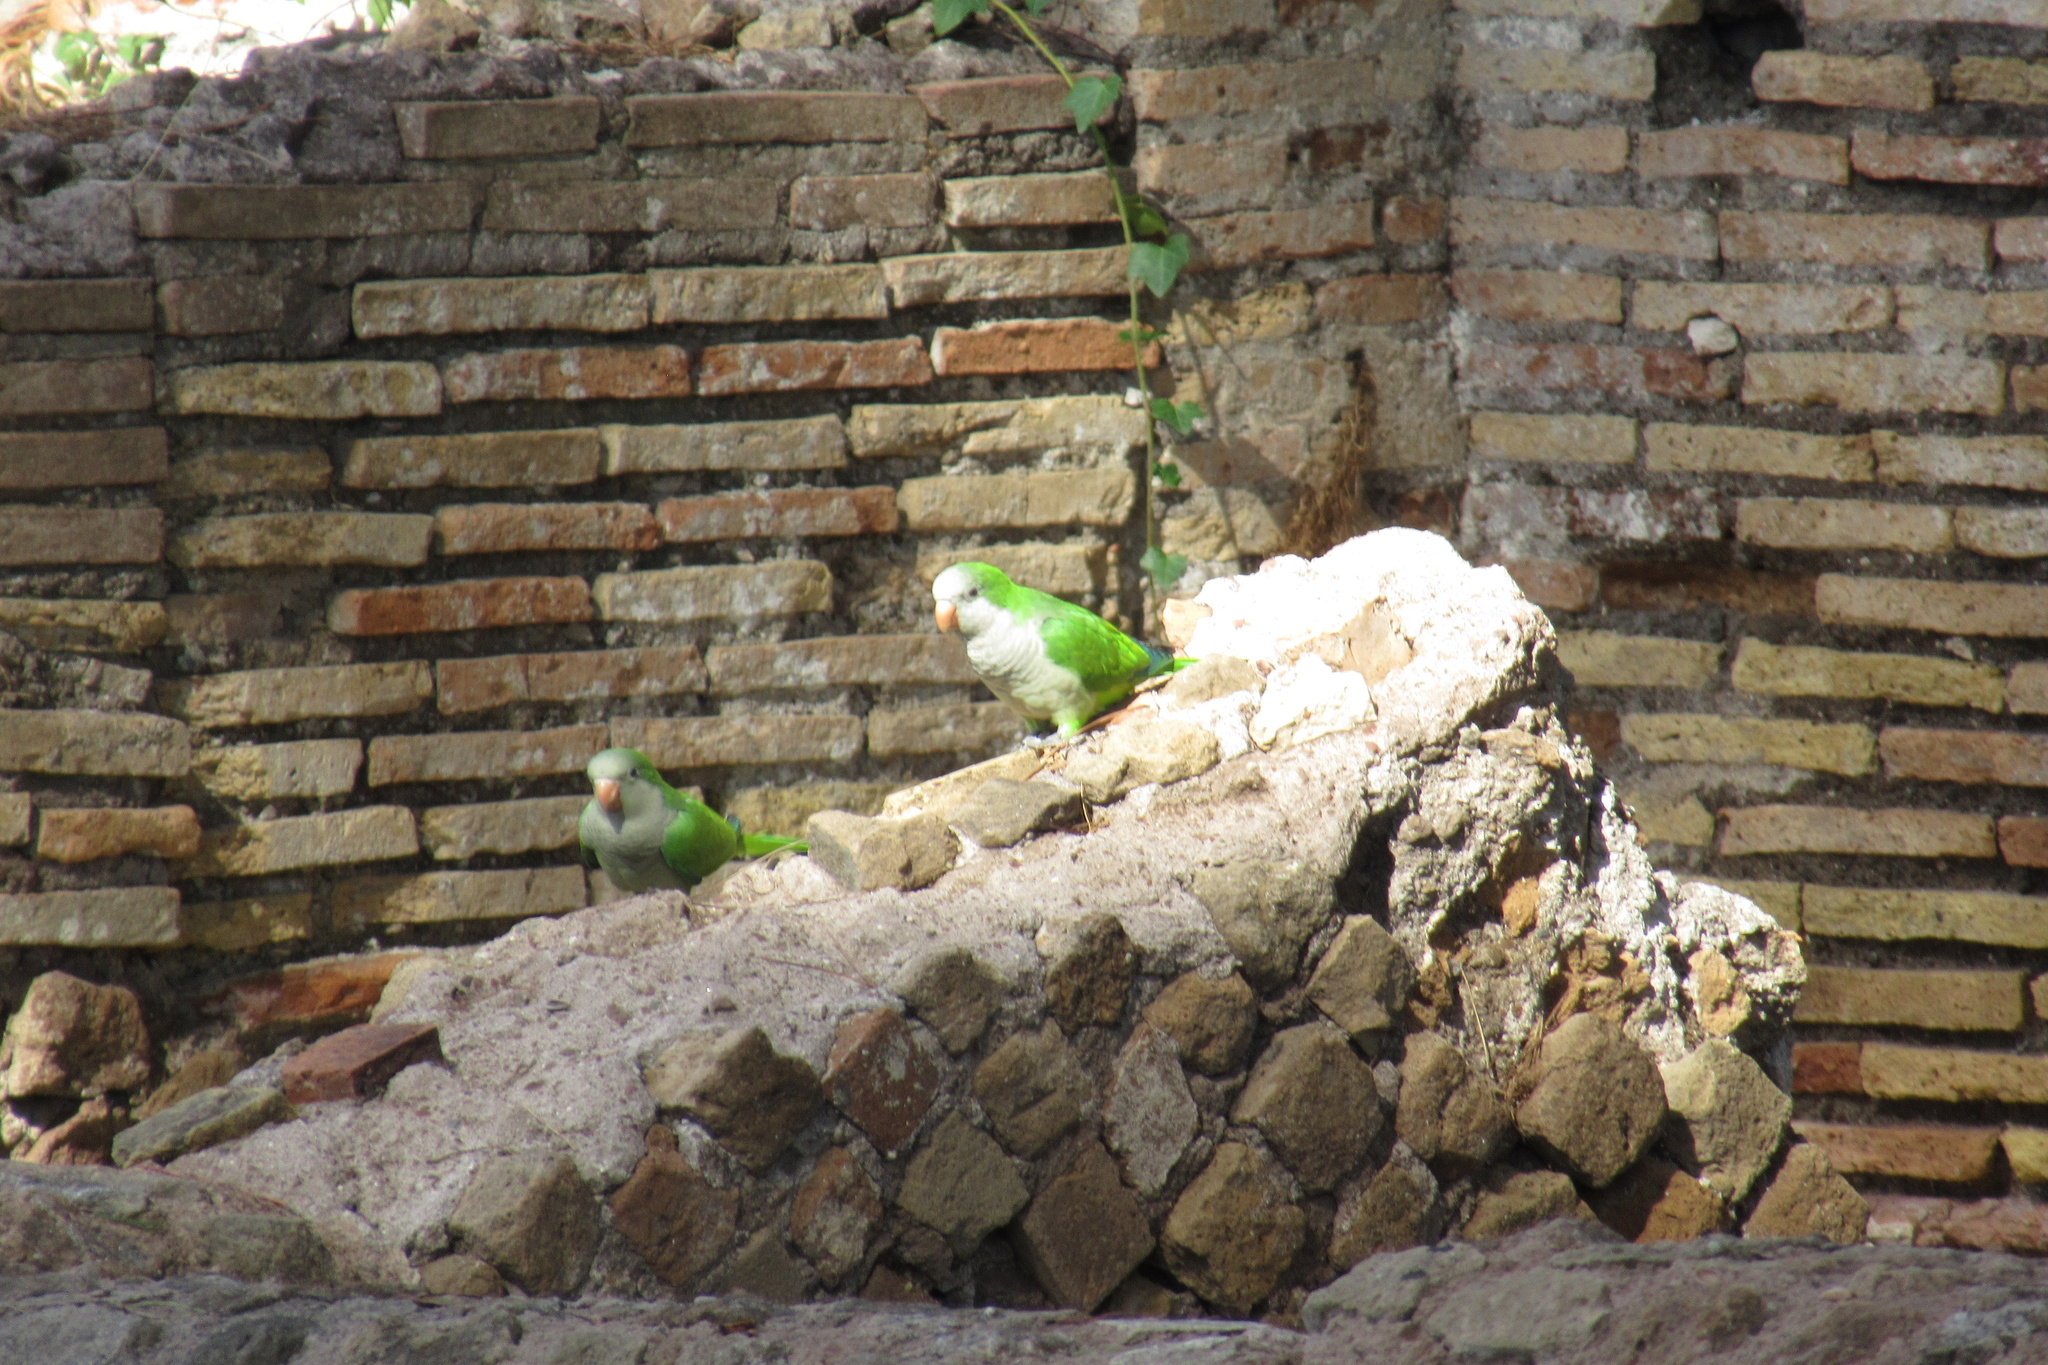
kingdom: Animalia
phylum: Chordata
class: Aves
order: Psittaciformes
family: Psittacidae
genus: Myiopsitta
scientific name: Myiopsitta monachus
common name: Monk parakeet
